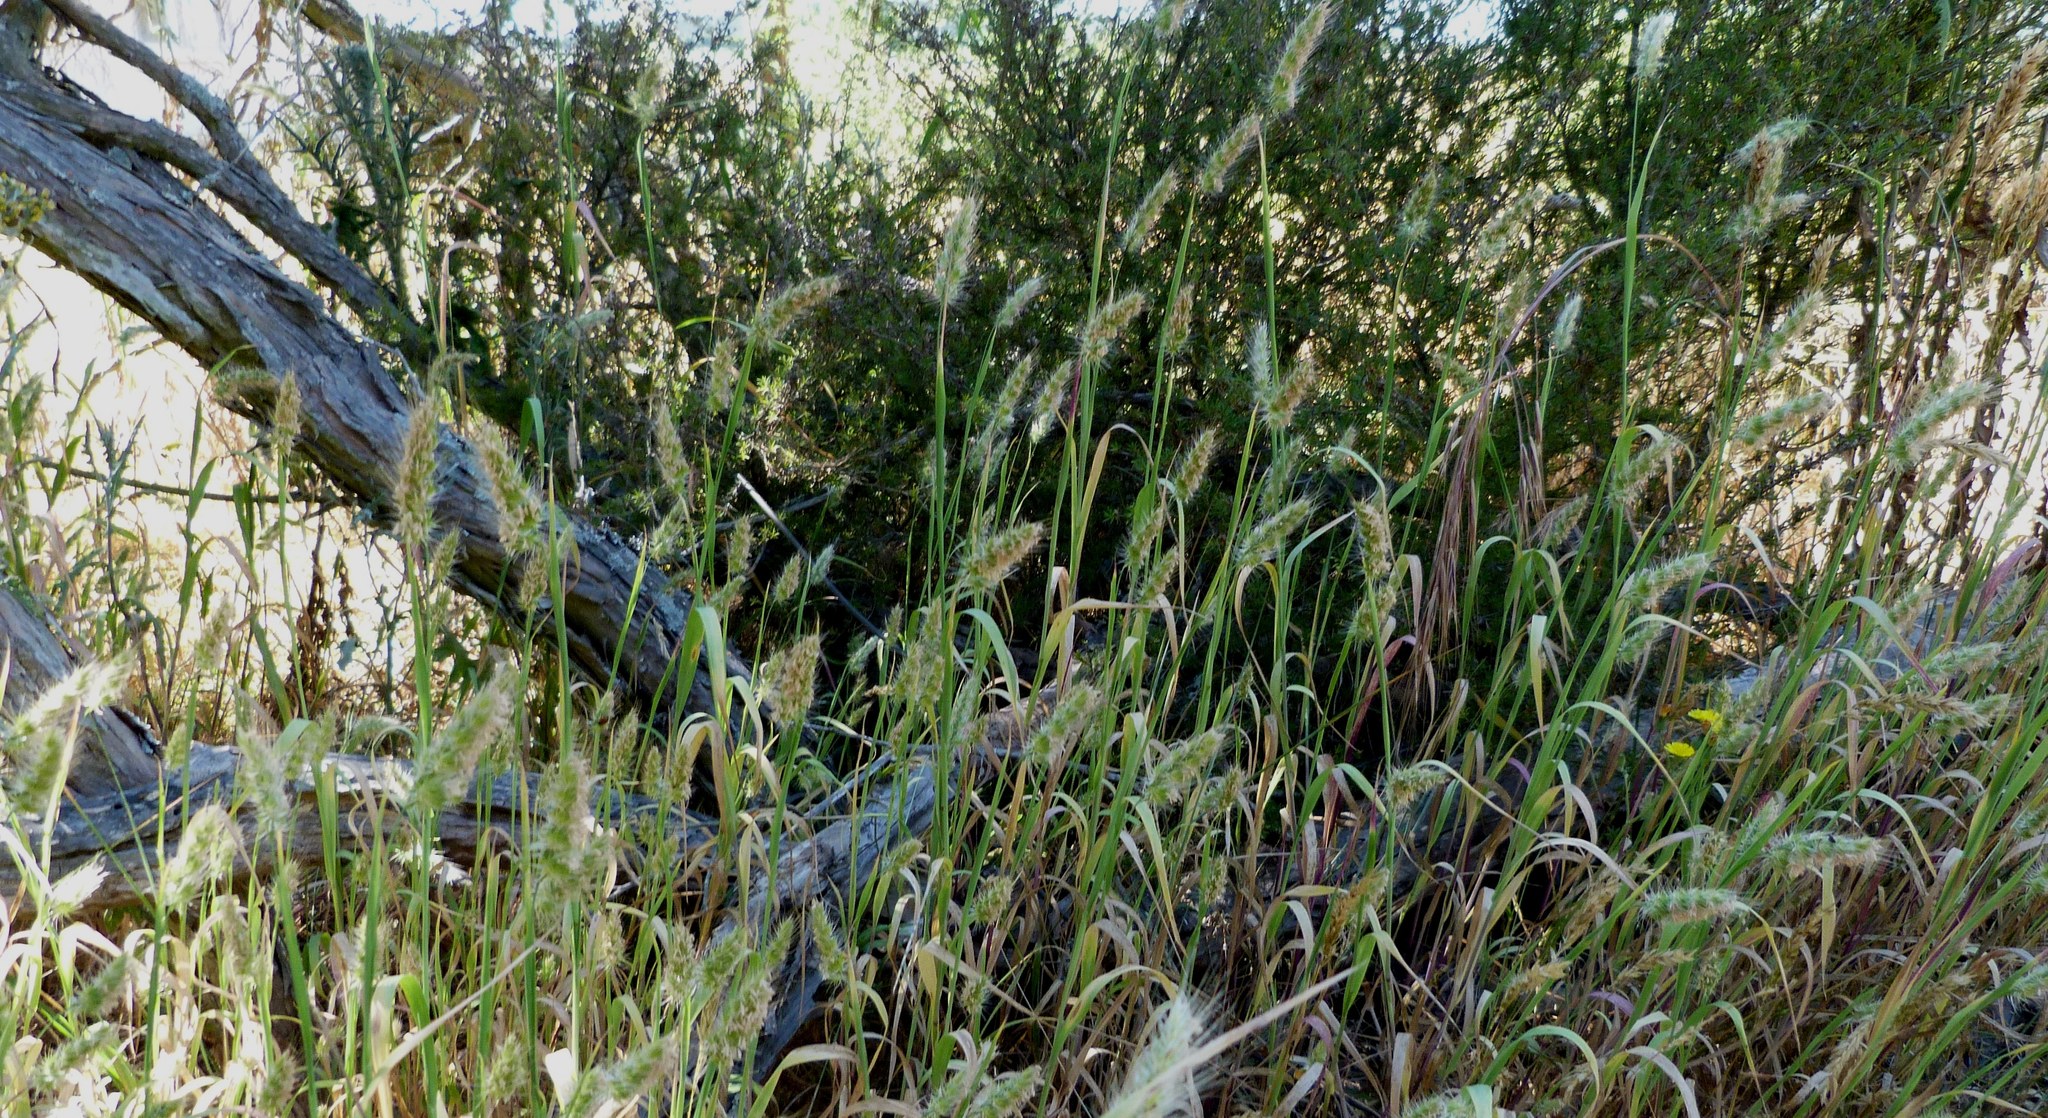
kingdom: Plantae
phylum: Tracheophyta
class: Liliopsida
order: Poales
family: Poaceae
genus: Cynosurus
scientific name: Cynosurus echinatus
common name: Rough dog's-tail
